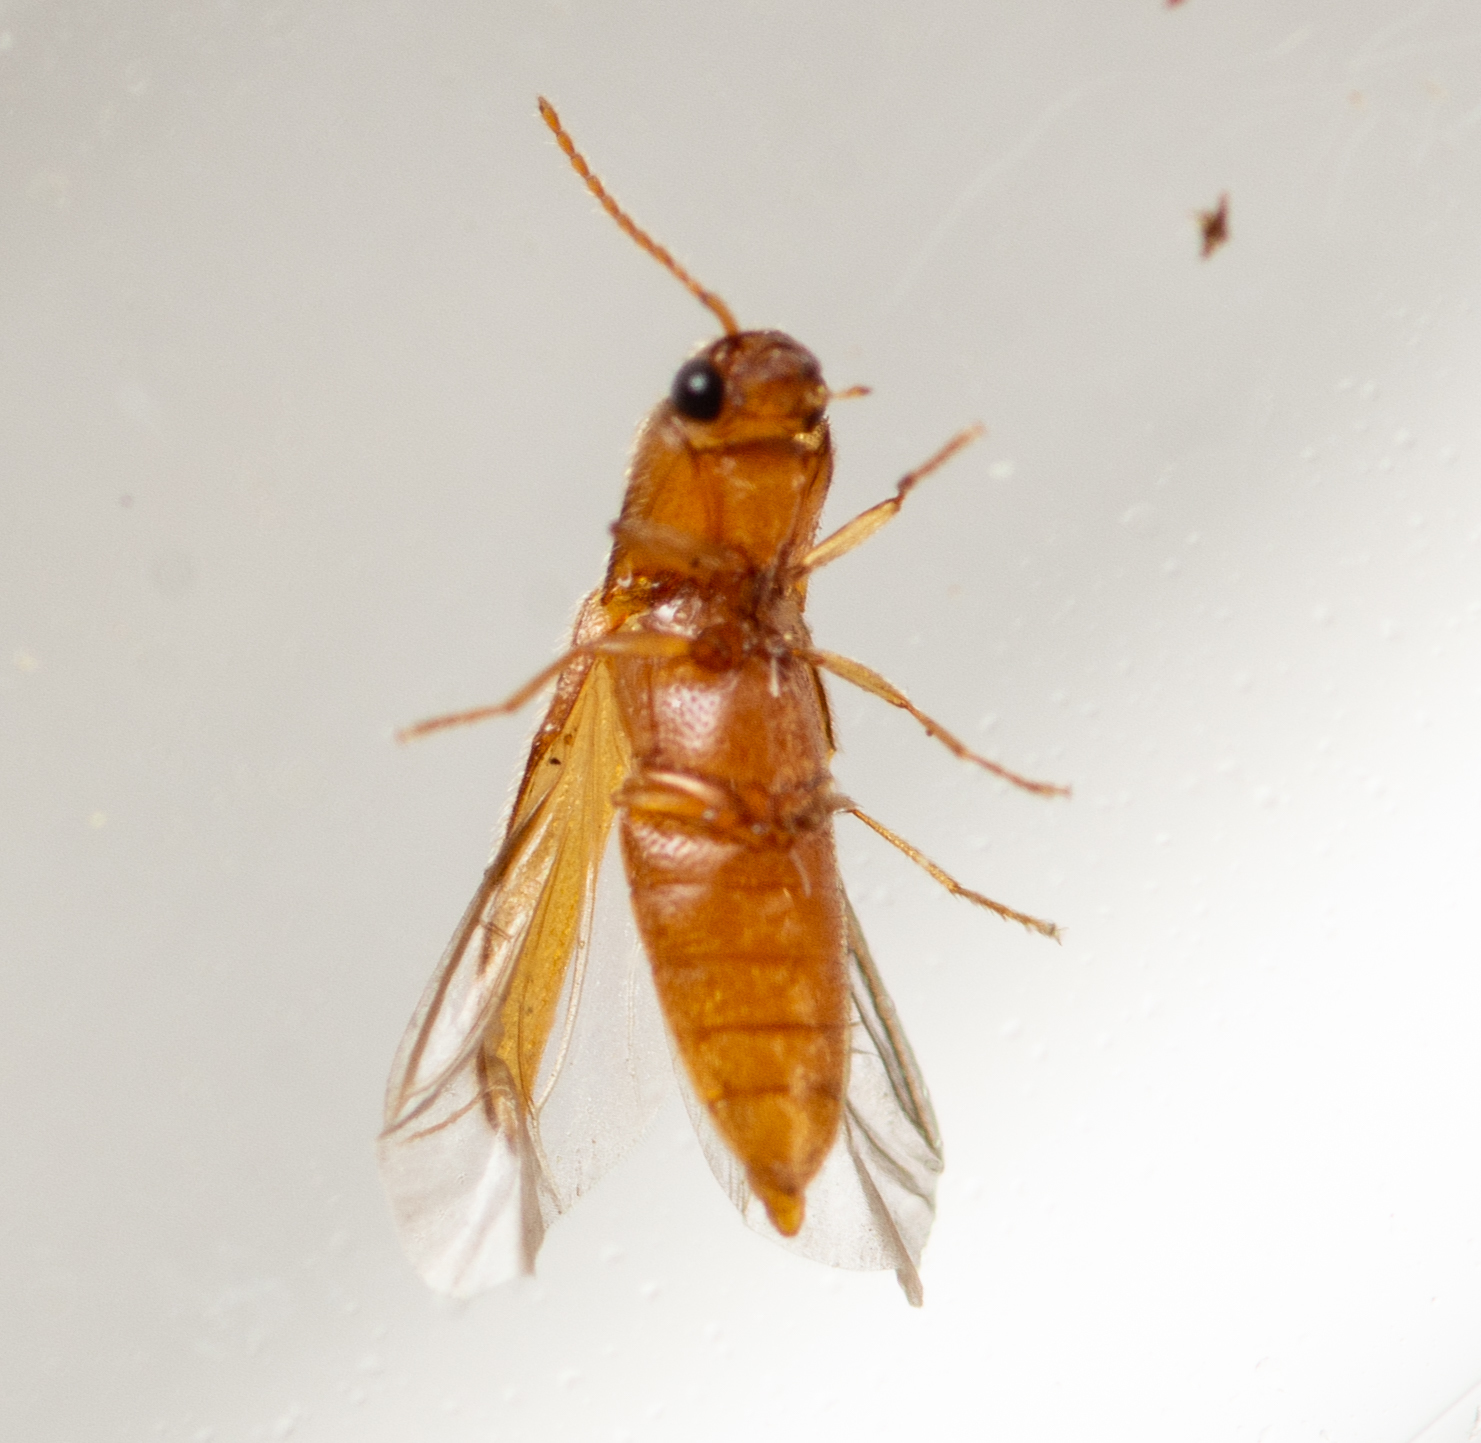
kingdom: Animalia
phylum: Arthropoda
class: Insecta
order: Coleoptera
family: Elateridae
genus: Glyphonyx
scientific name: Glyphonyx
